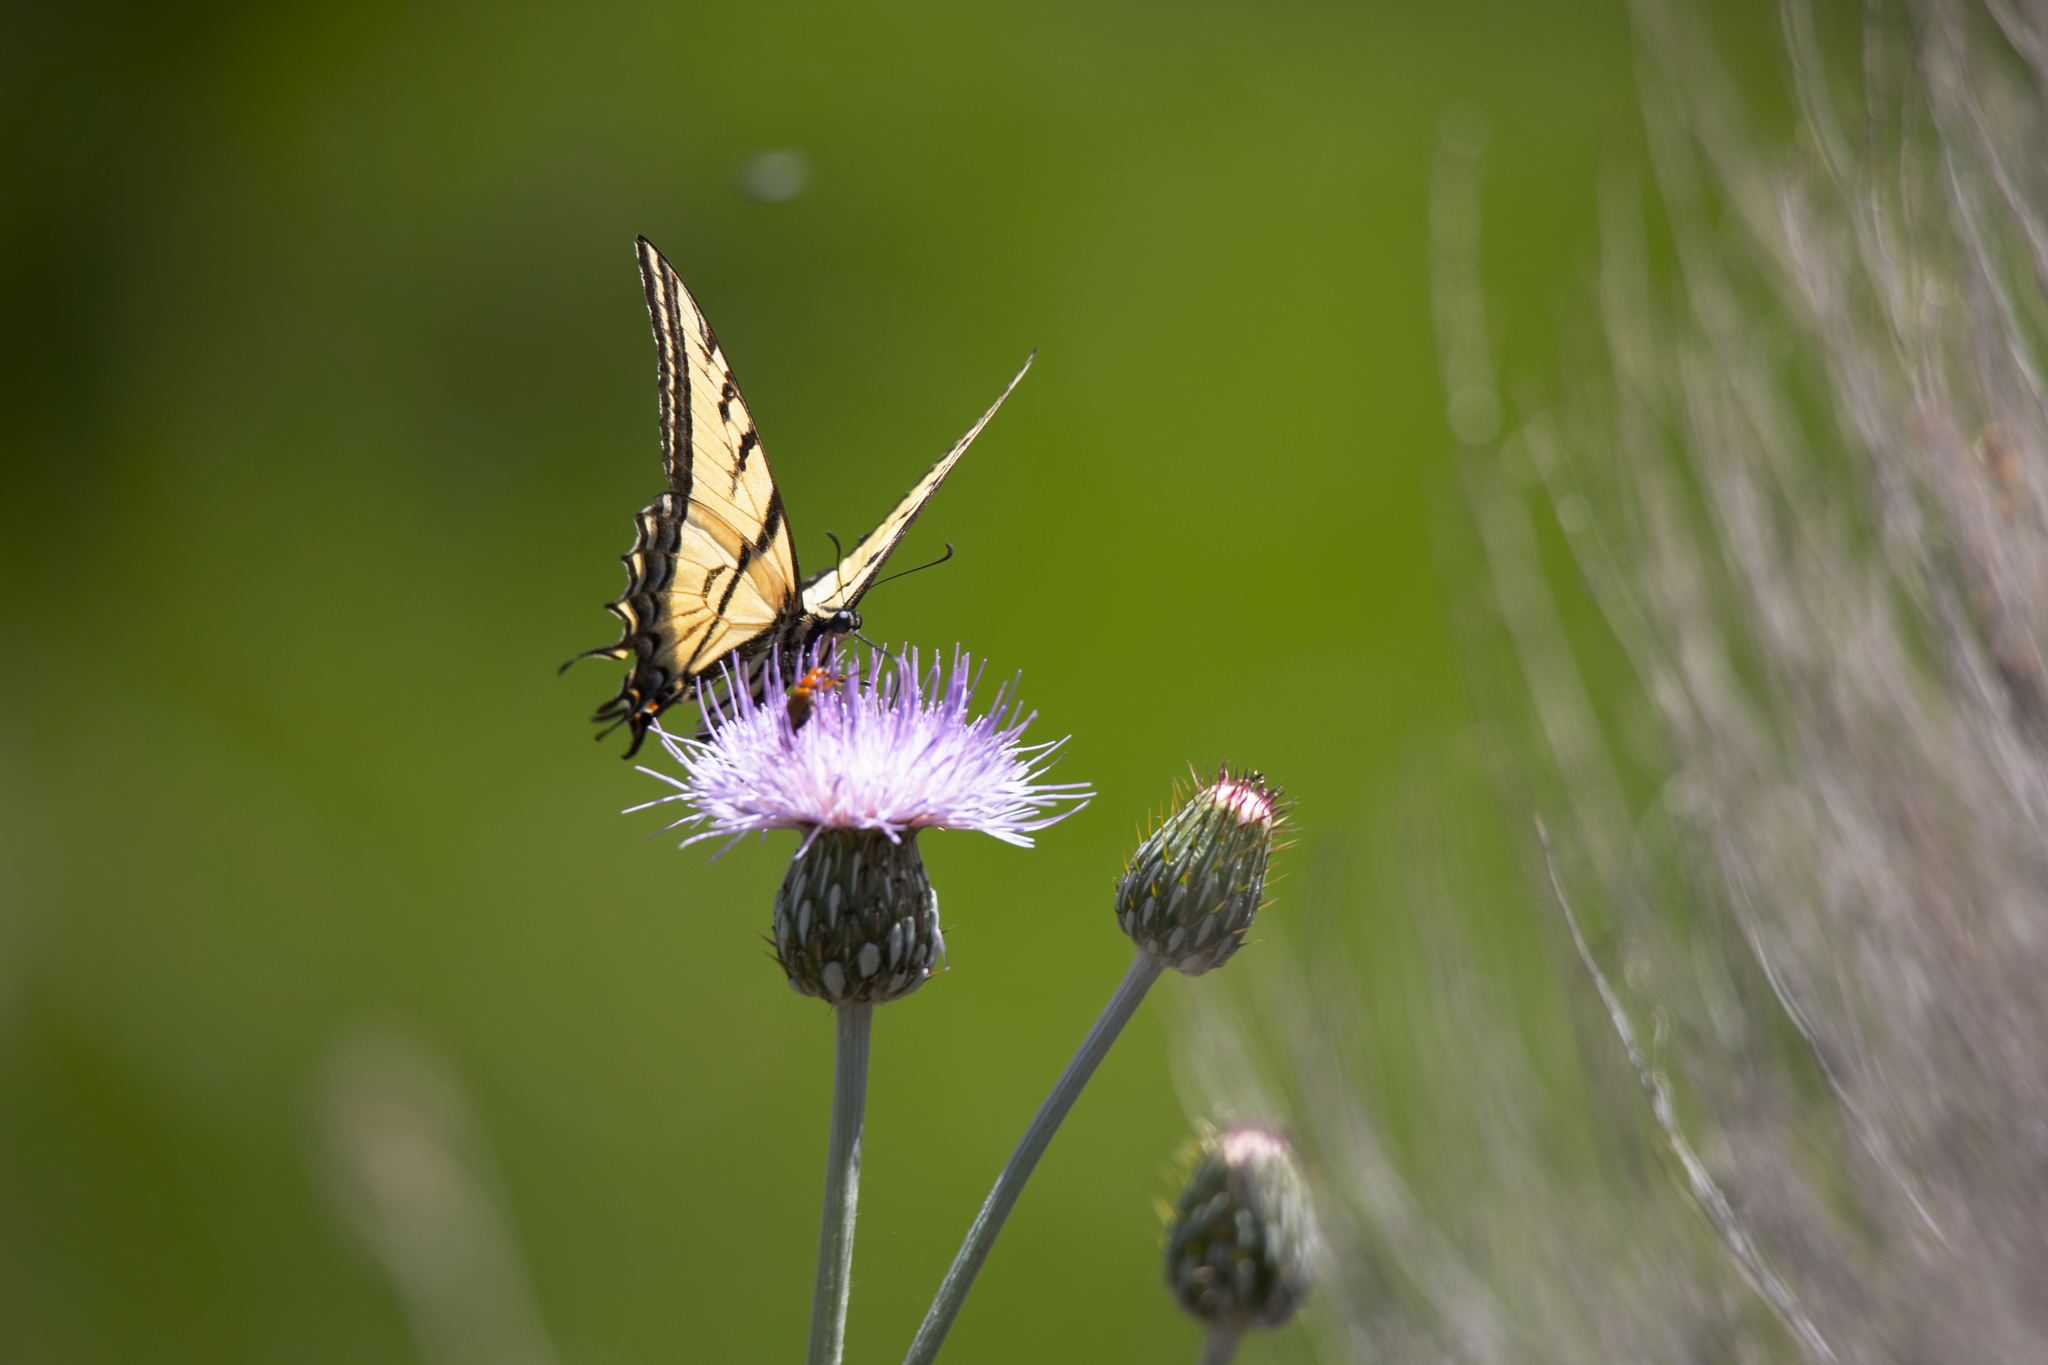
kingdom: Animalia
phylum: Arthropoda
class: Insecta
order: Lepidoptera
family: Papilionidae
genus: Papilio
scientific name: Papilio multicaudata
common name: Two-tailed tiger swallowtail
